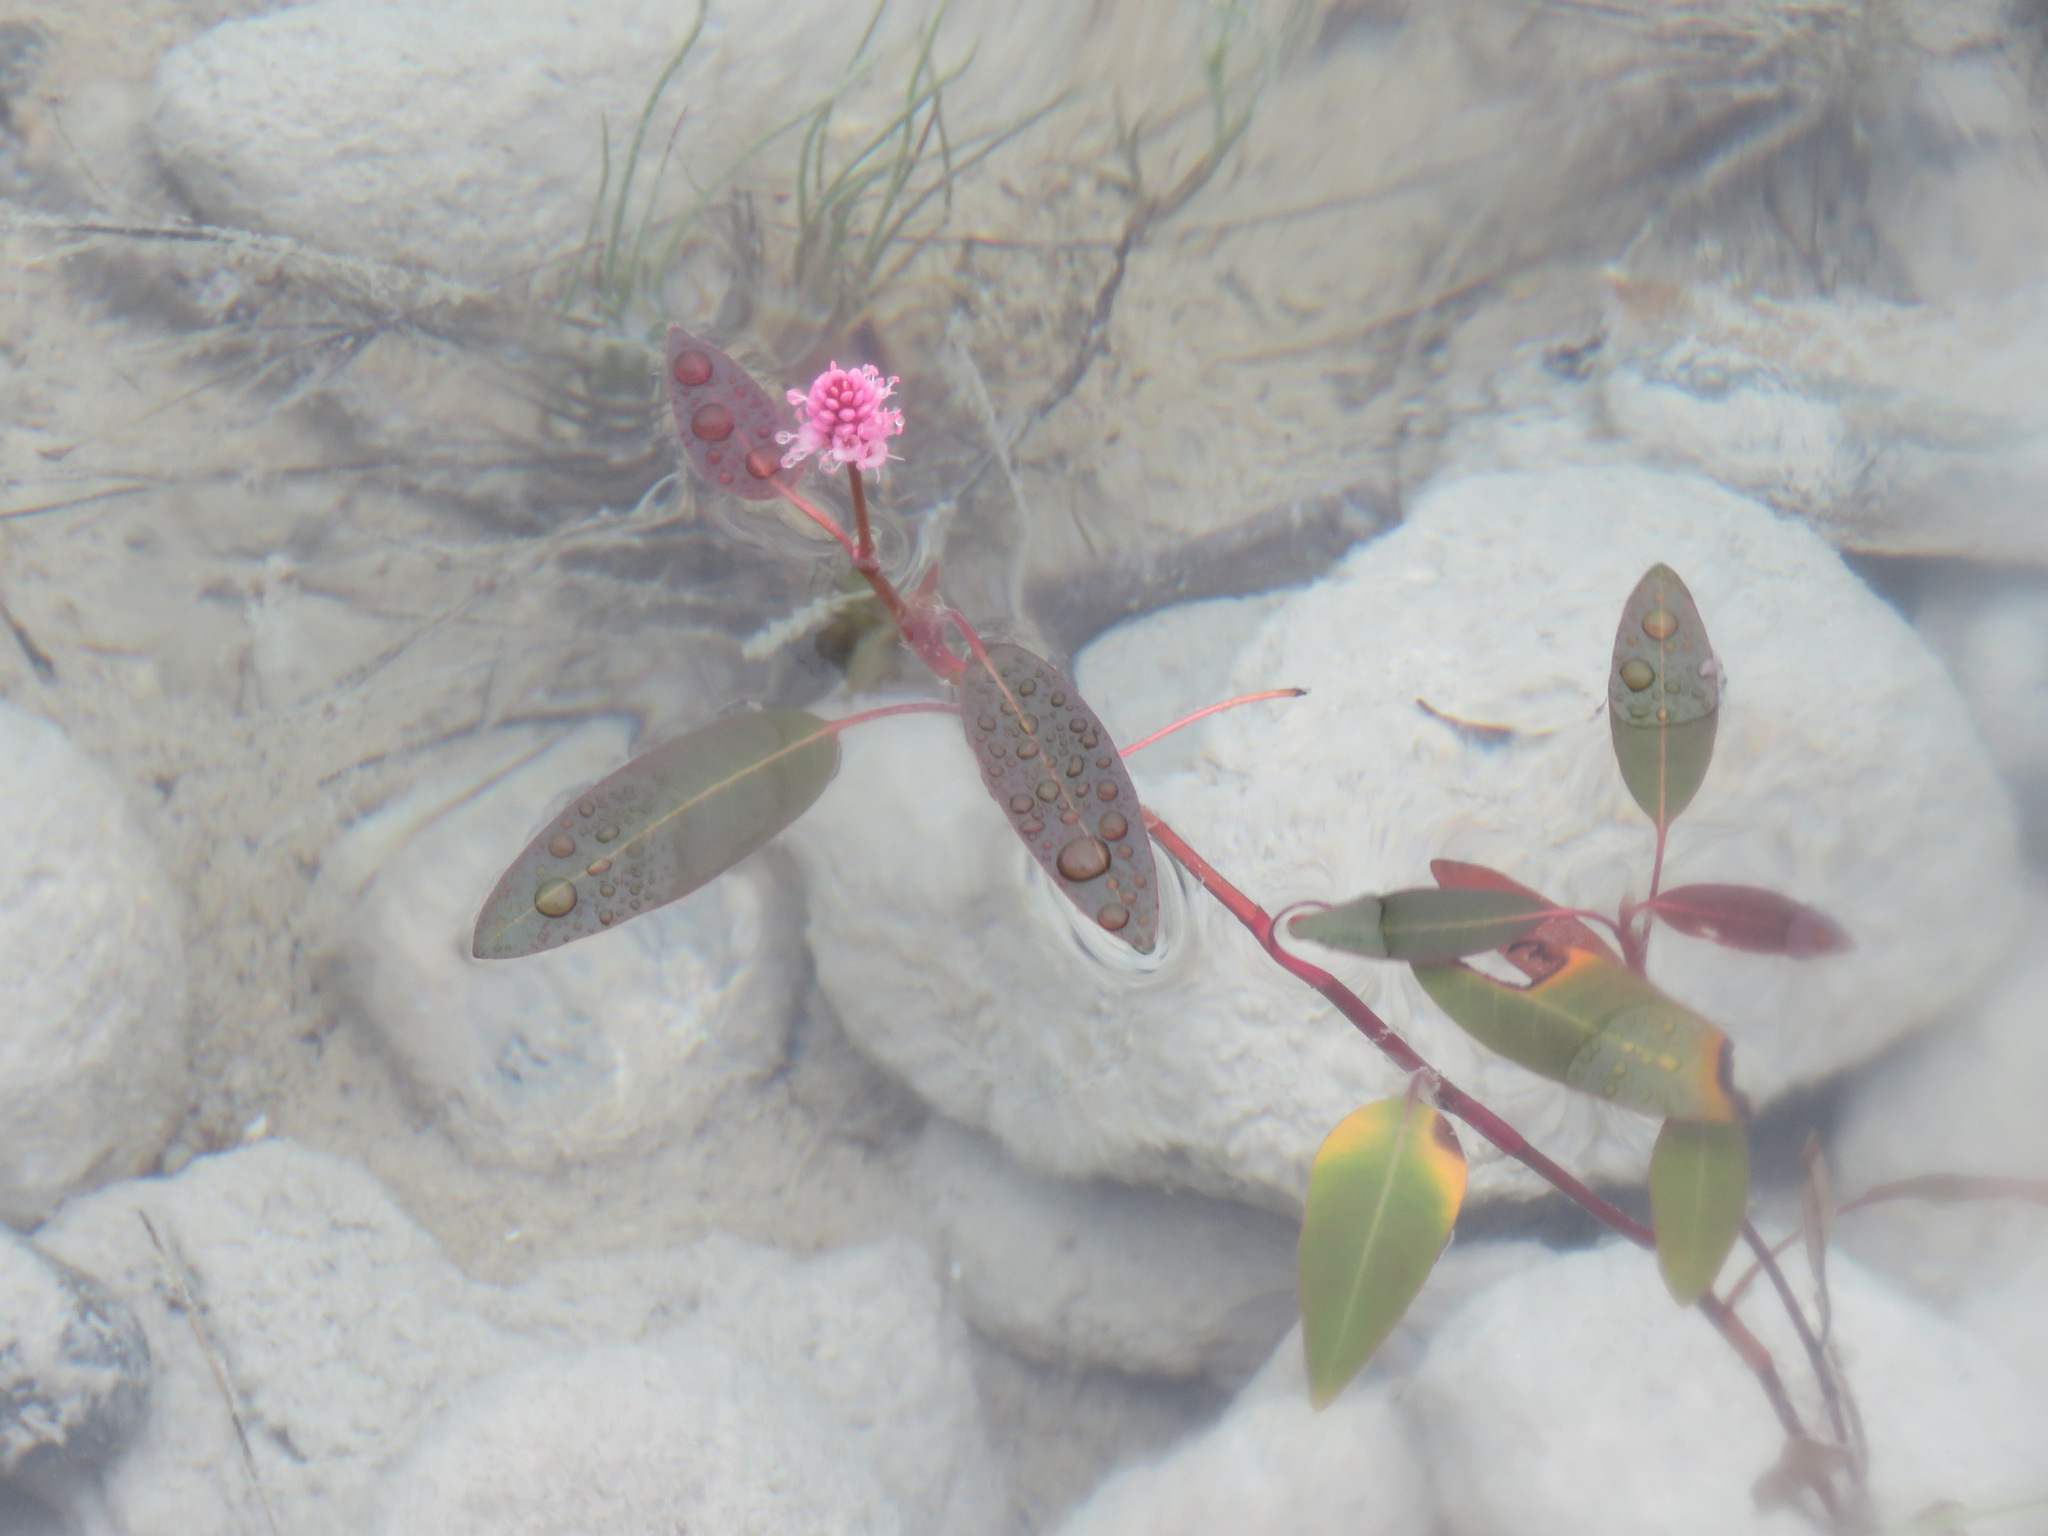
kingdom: Plantae
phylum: Tracheophyta
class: Magnoliopsida
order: Caryophyllales
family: Polygonaceae
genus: Persicaria
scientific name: Persicaria amphibia
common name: Amphibious bistort
